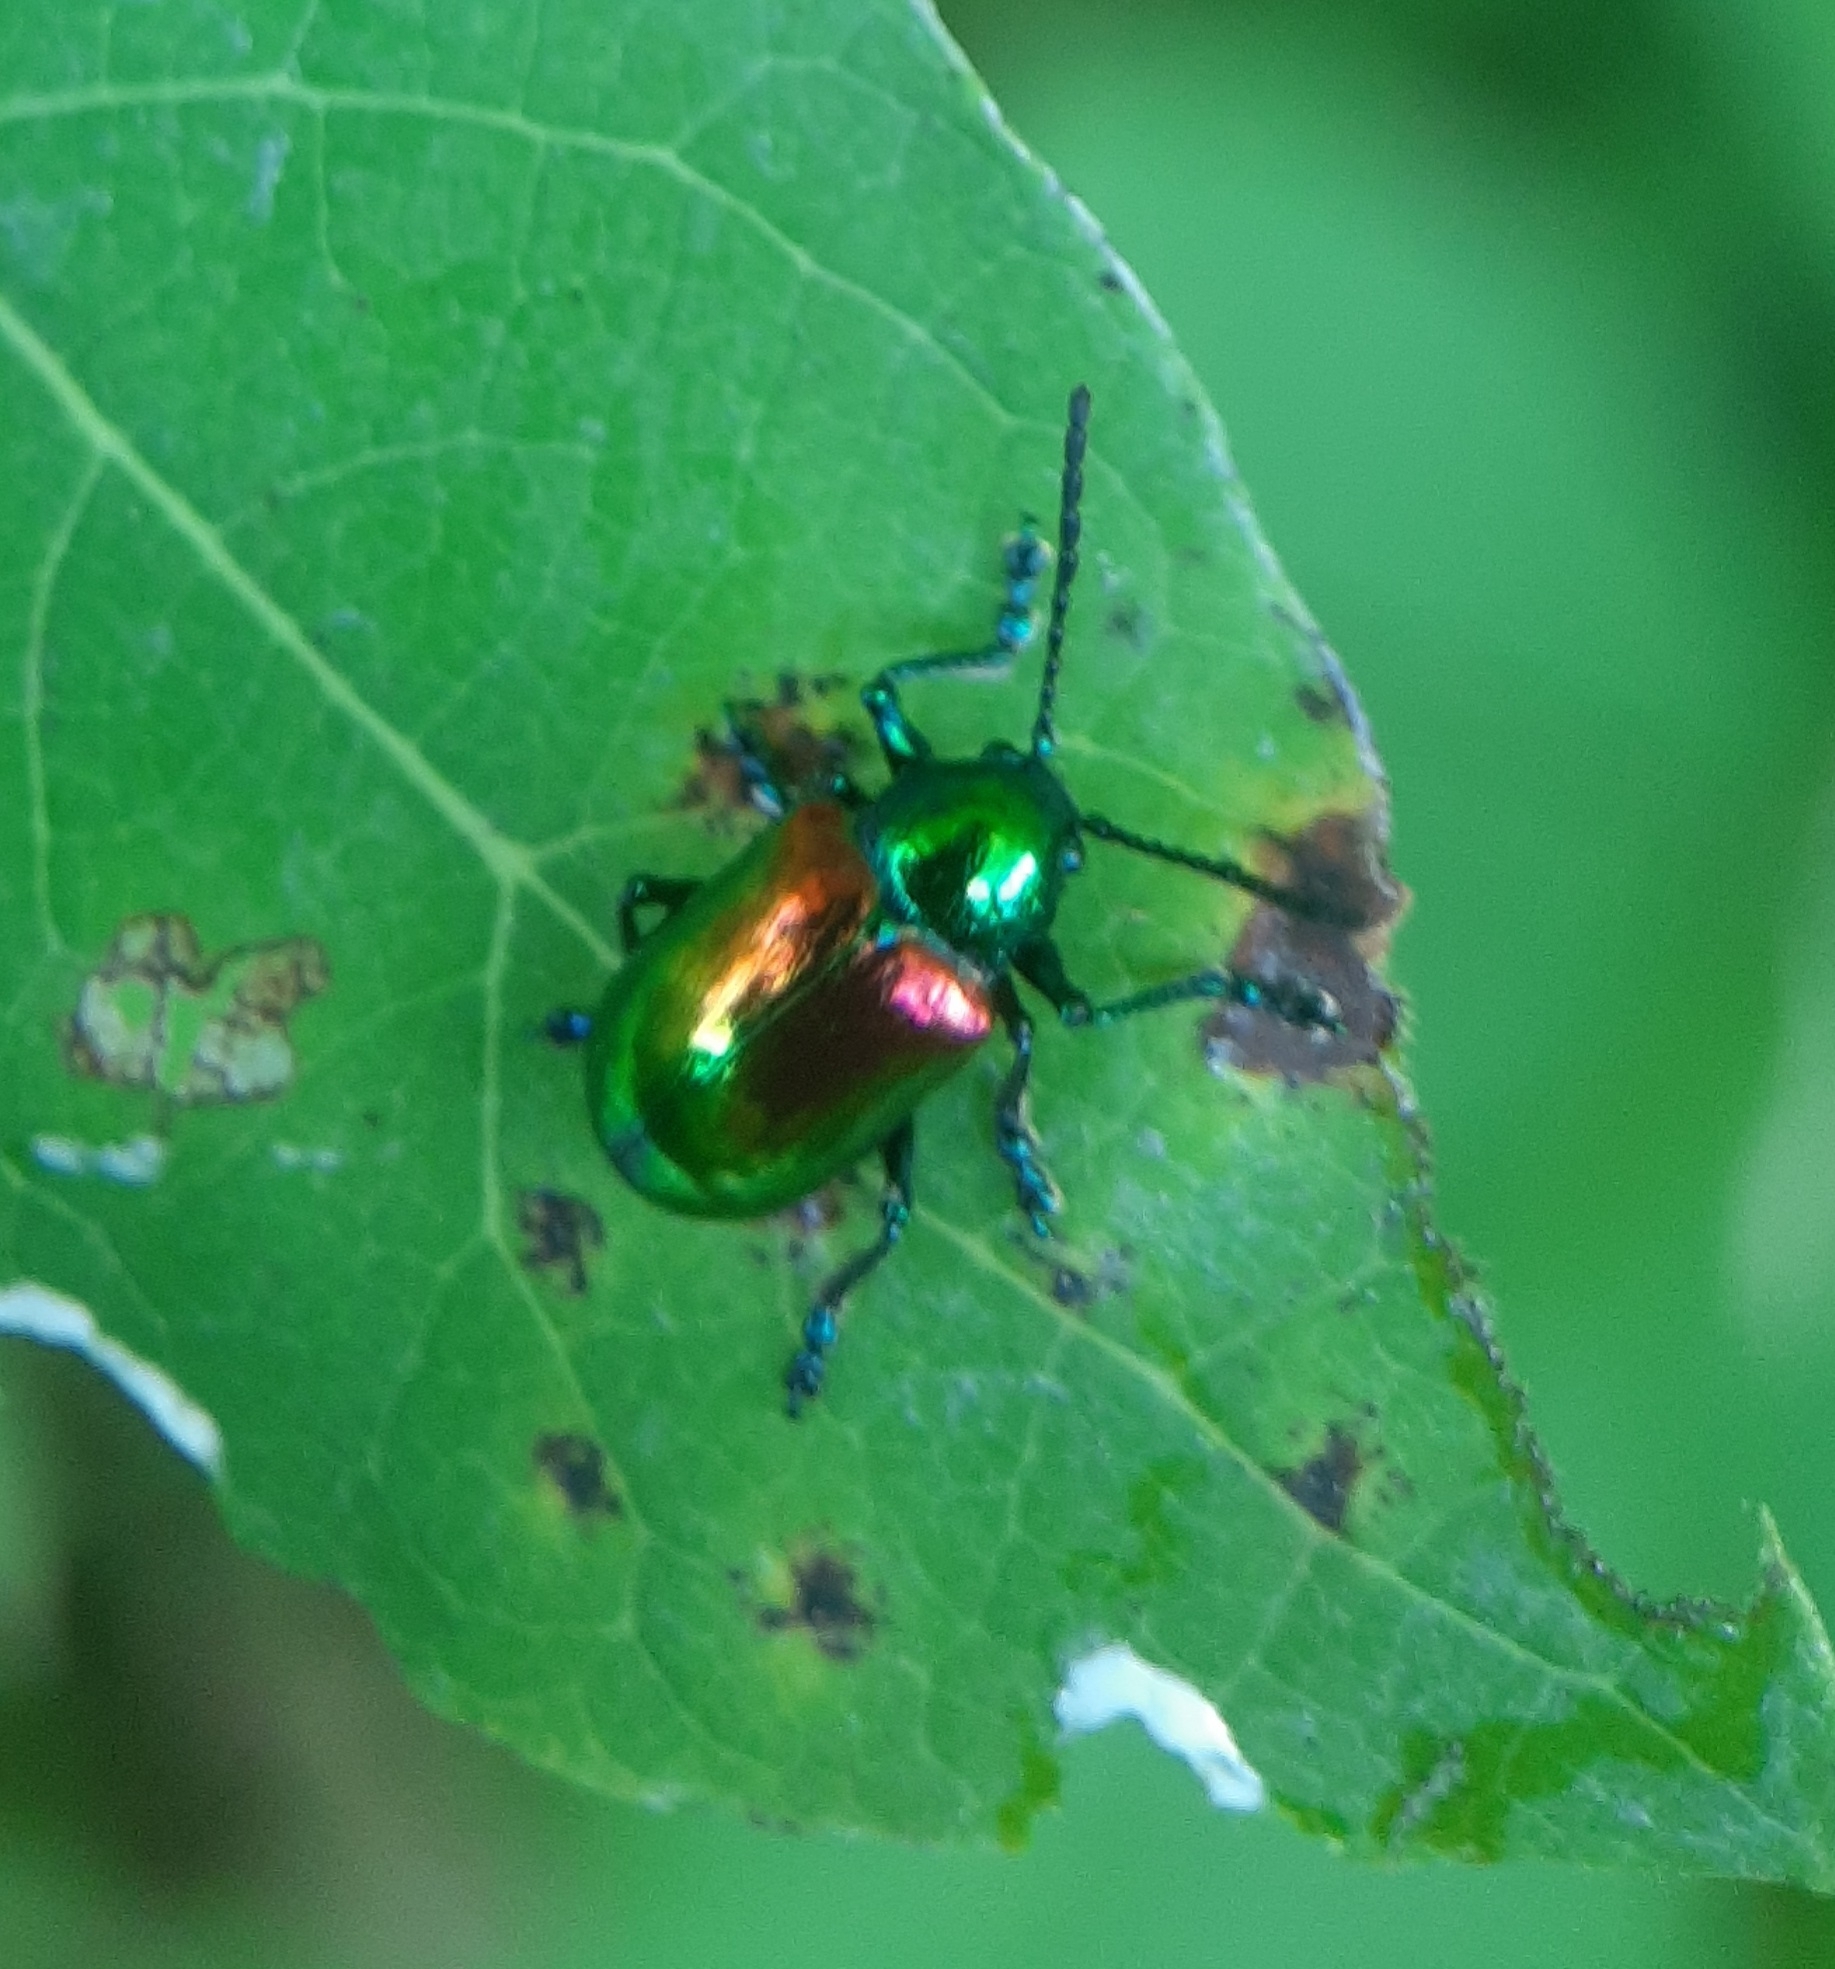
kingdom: Animalia
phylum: Arthropoda
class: Insecta
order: Coleoptera
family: Chrysomelidae
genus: Chrysochus
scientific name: Chrysochus auratus
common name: Dogbane leaf beetle
